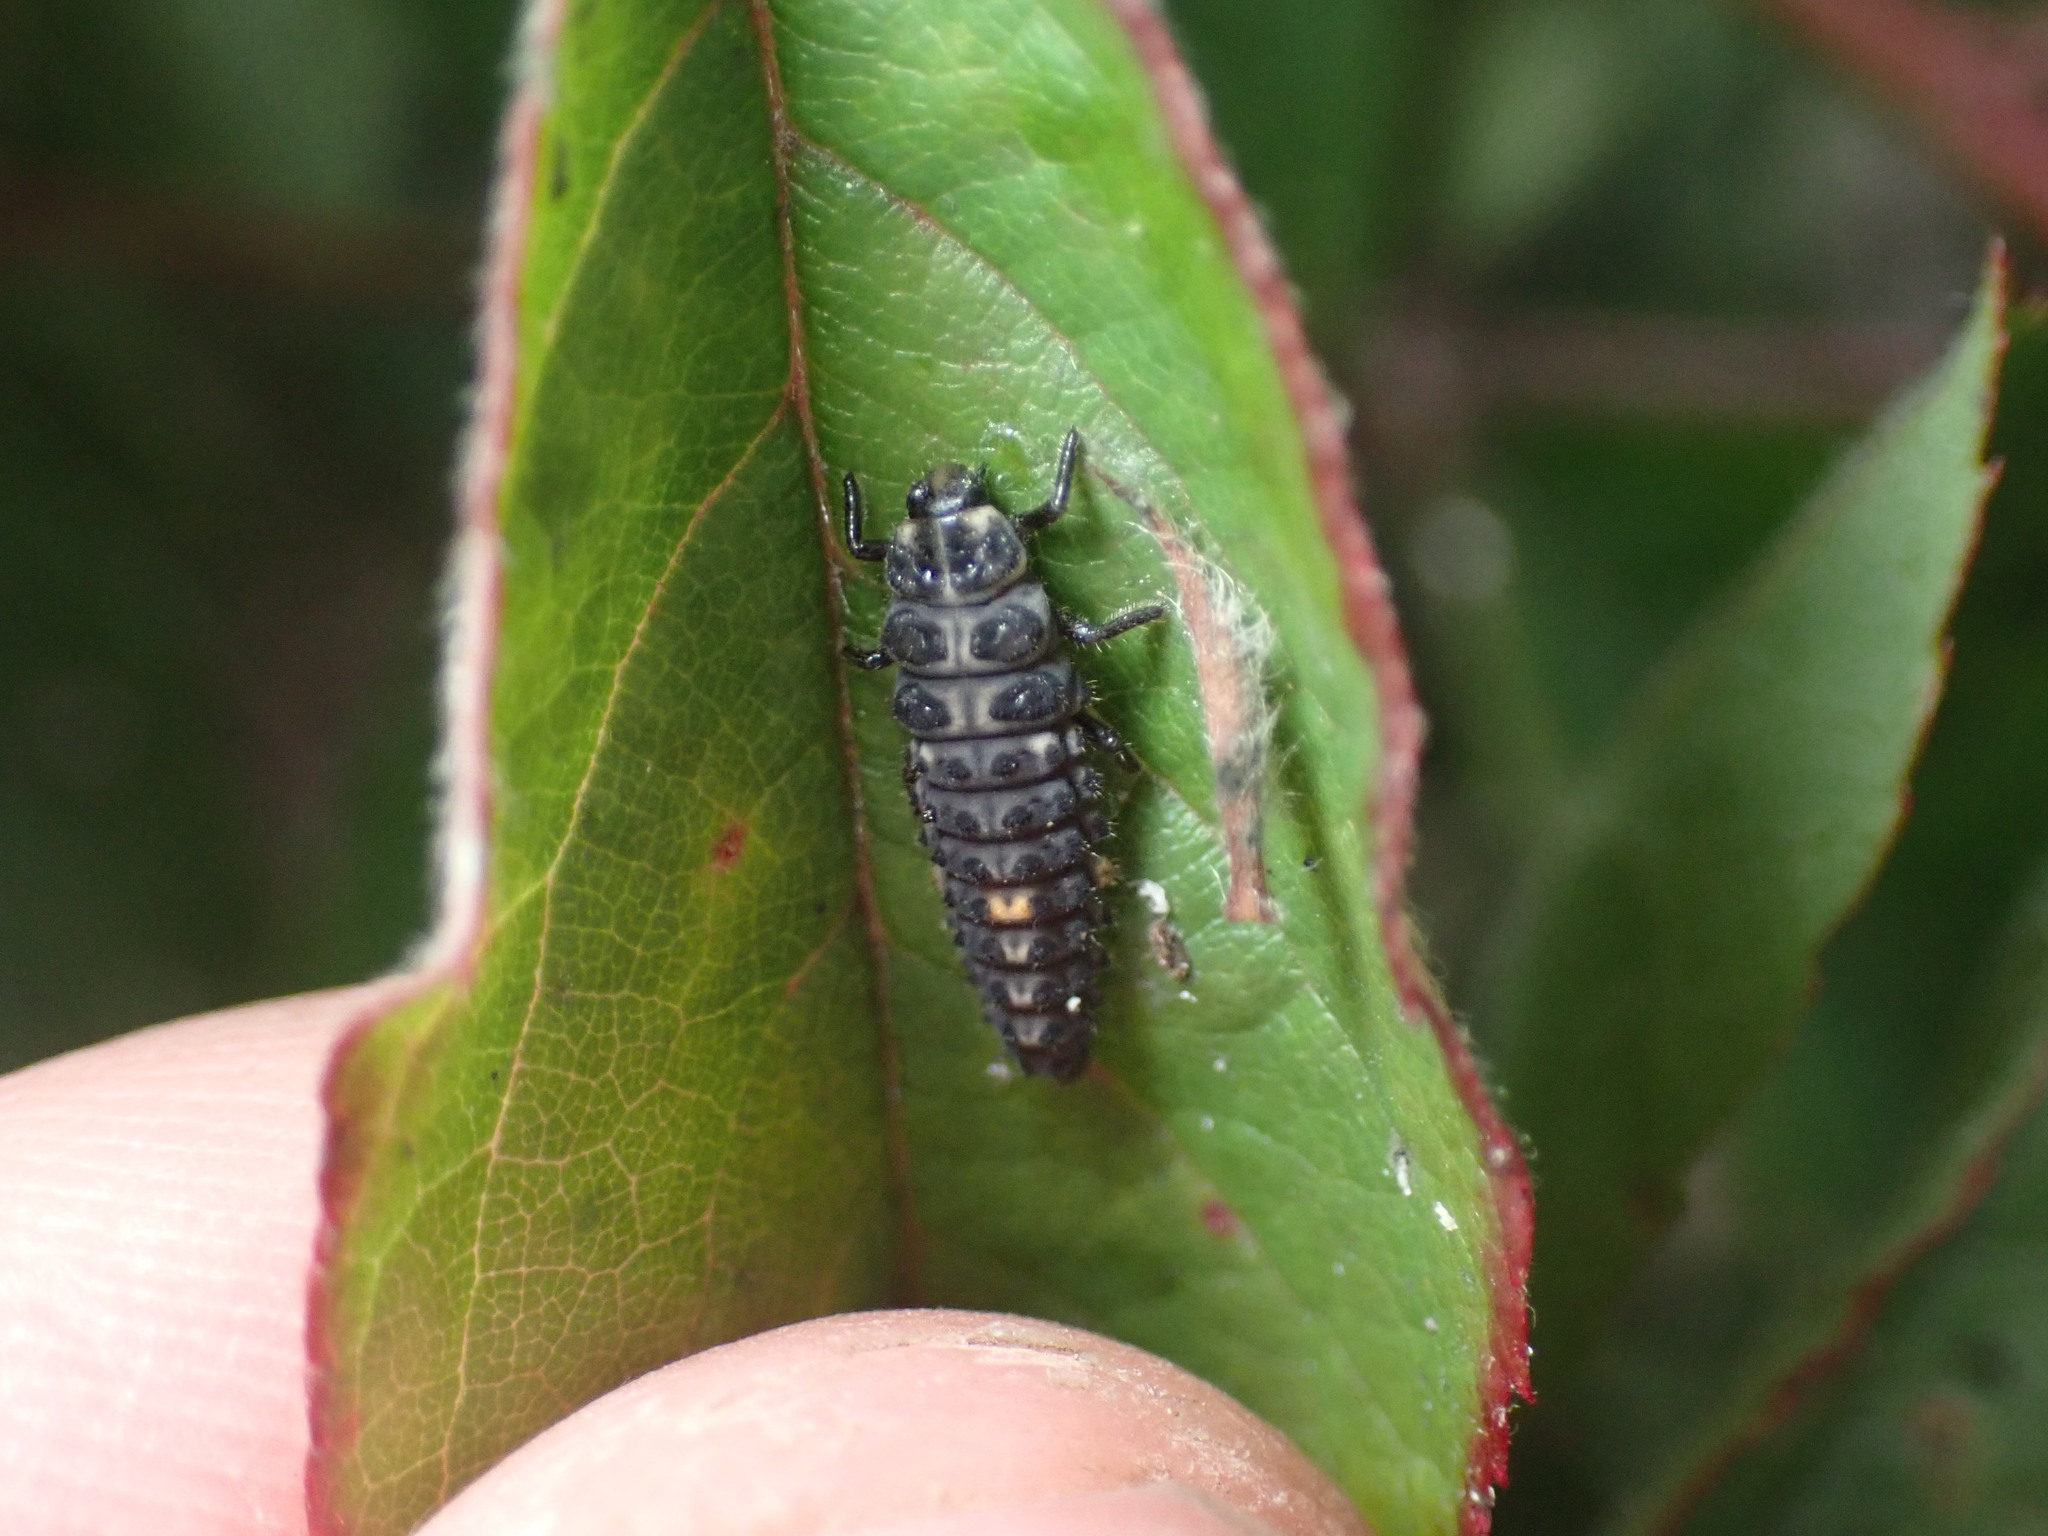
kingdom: Animalia
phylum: Arthropoda
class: Insecta
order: Coleoptera
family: Coccinellidae
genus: Adalia
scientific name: Adalia bipunctata
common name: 2-spot ladybird
